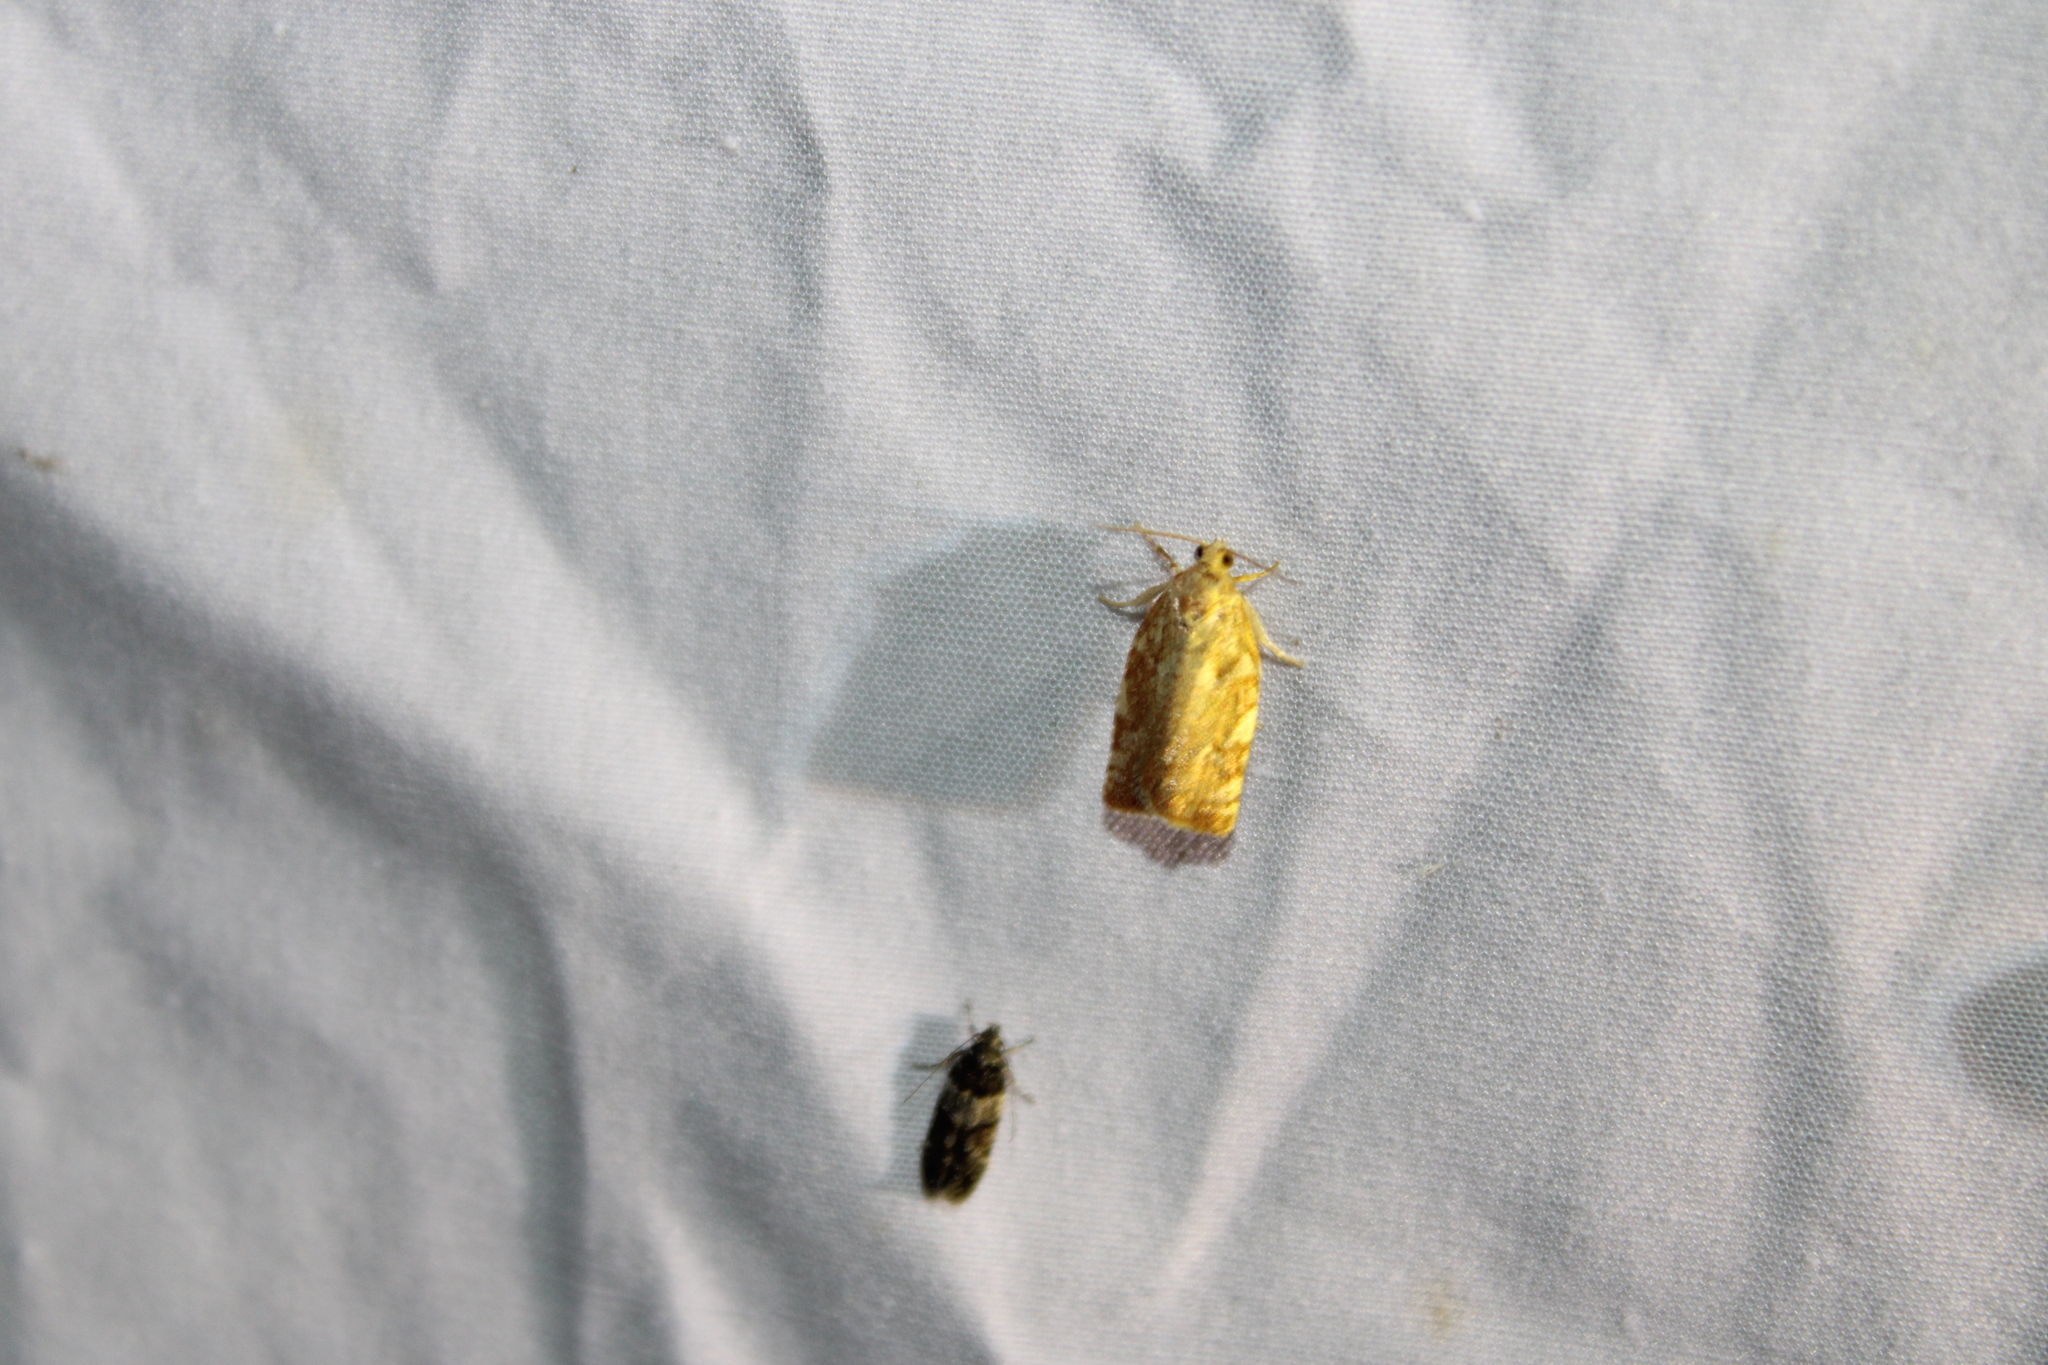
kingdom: Animalia
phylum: Arthropoda
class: Insecta
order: Lepidoptera
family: Tortricidae
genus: Archips
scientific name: Archips semiferanus
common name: Oak leafroller
